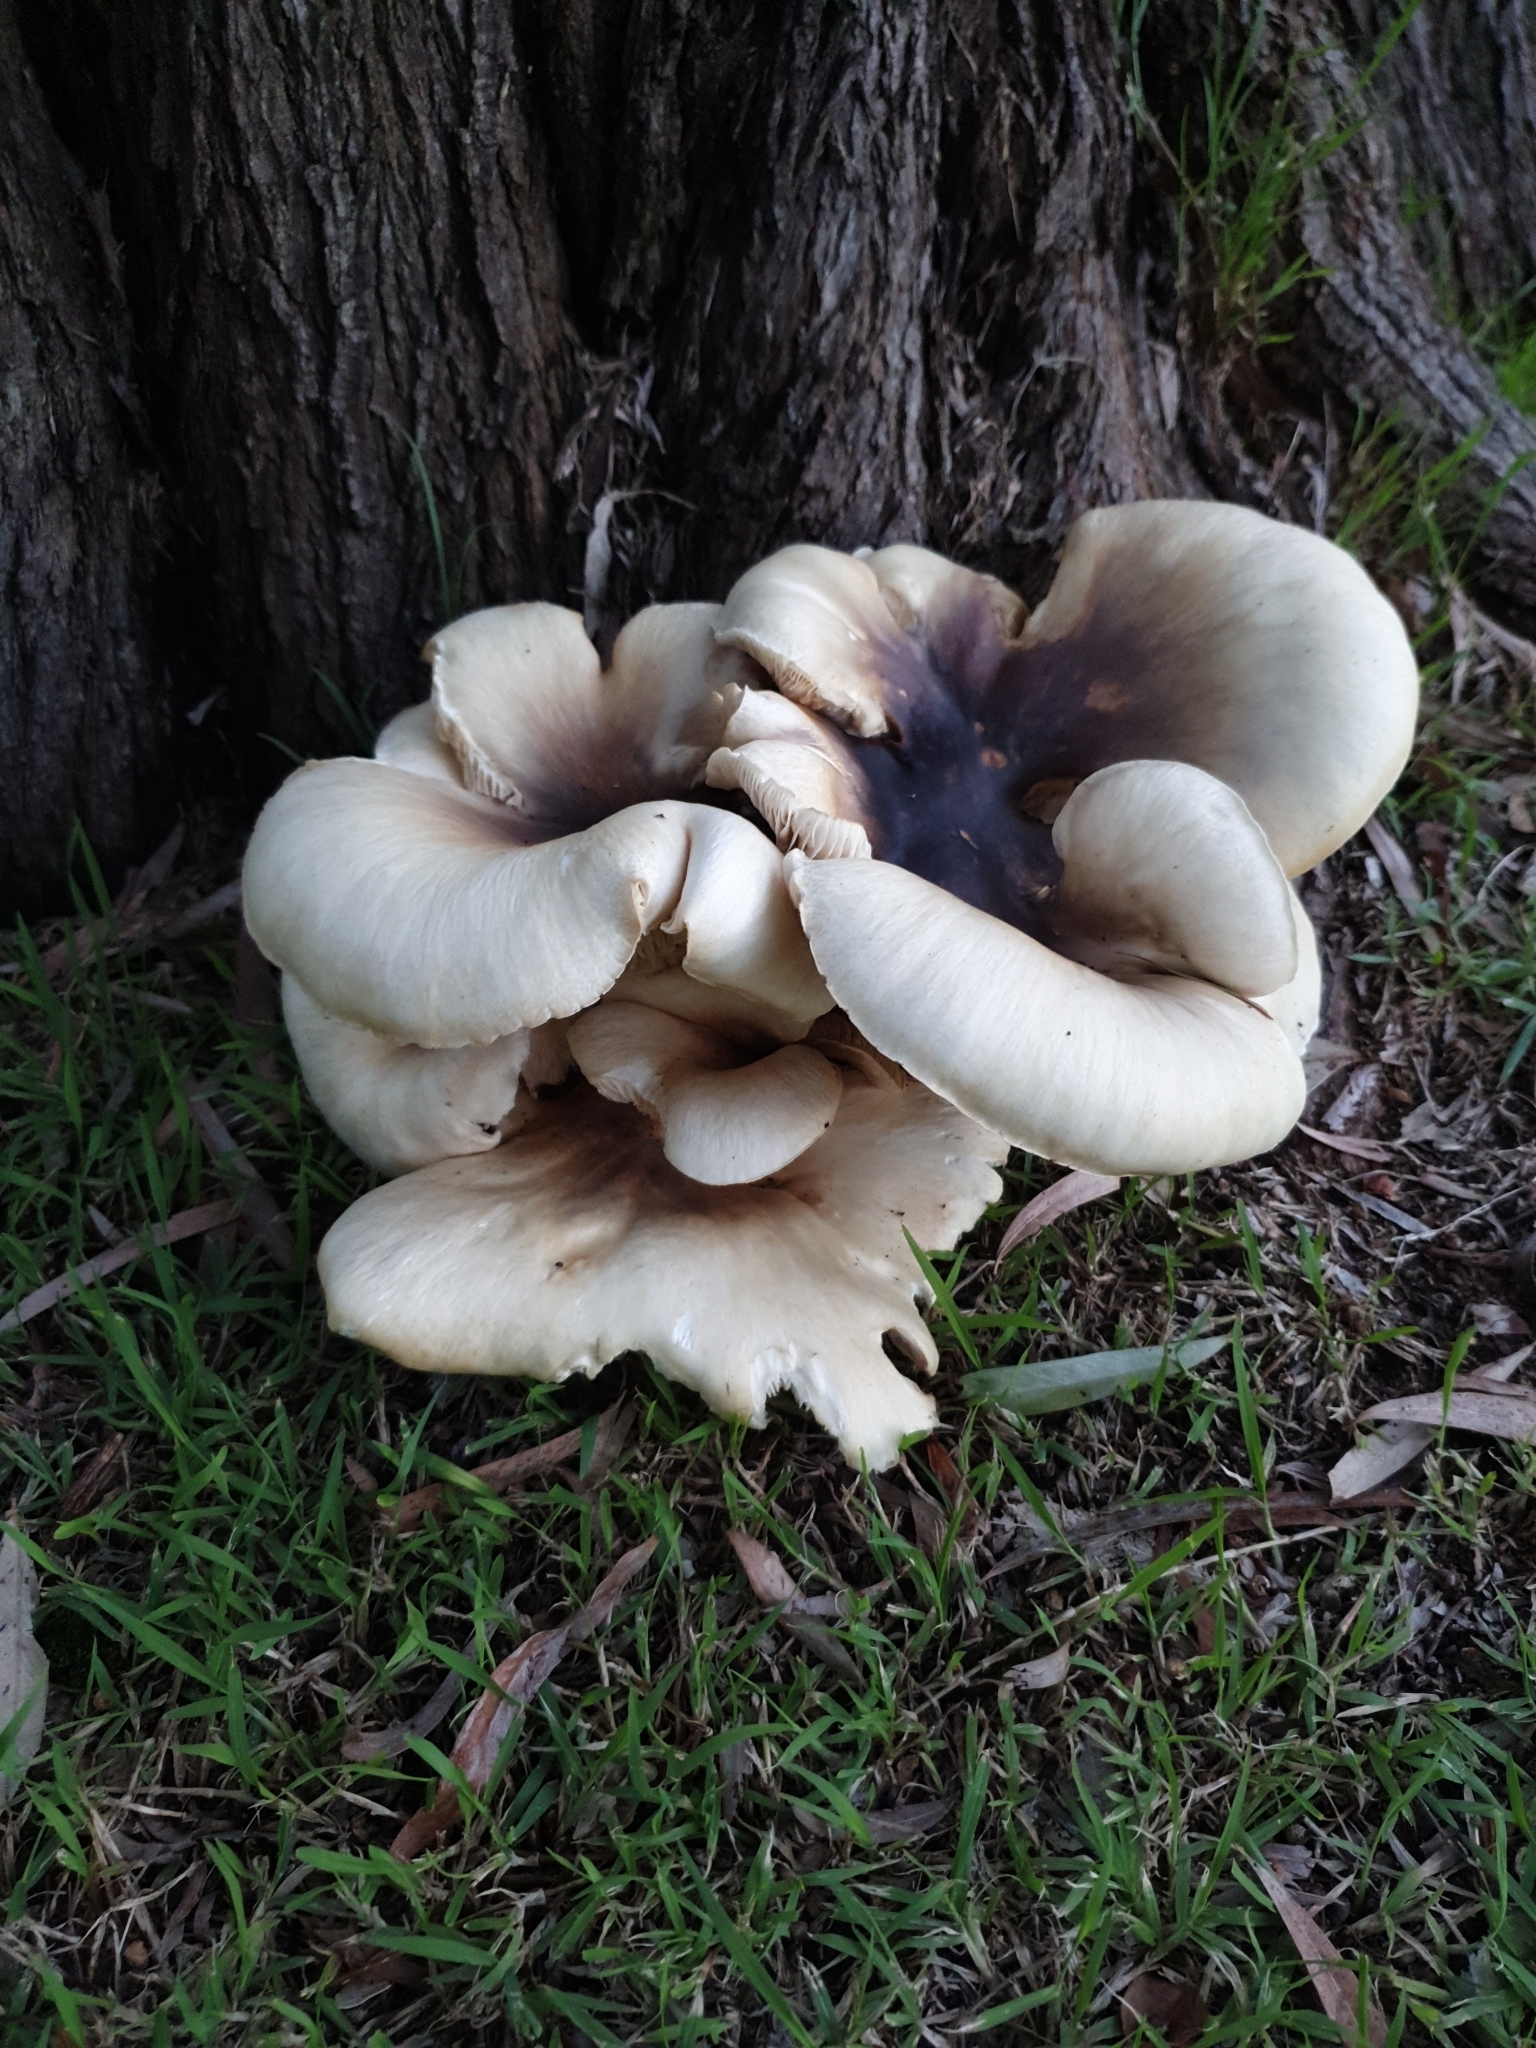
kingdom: Fungi
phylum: Basidiomycota
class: Agaricomycetes
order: Agaricales
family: Omphalotaceae
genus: Omphalotus
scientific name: Omphalotus nidiformis
